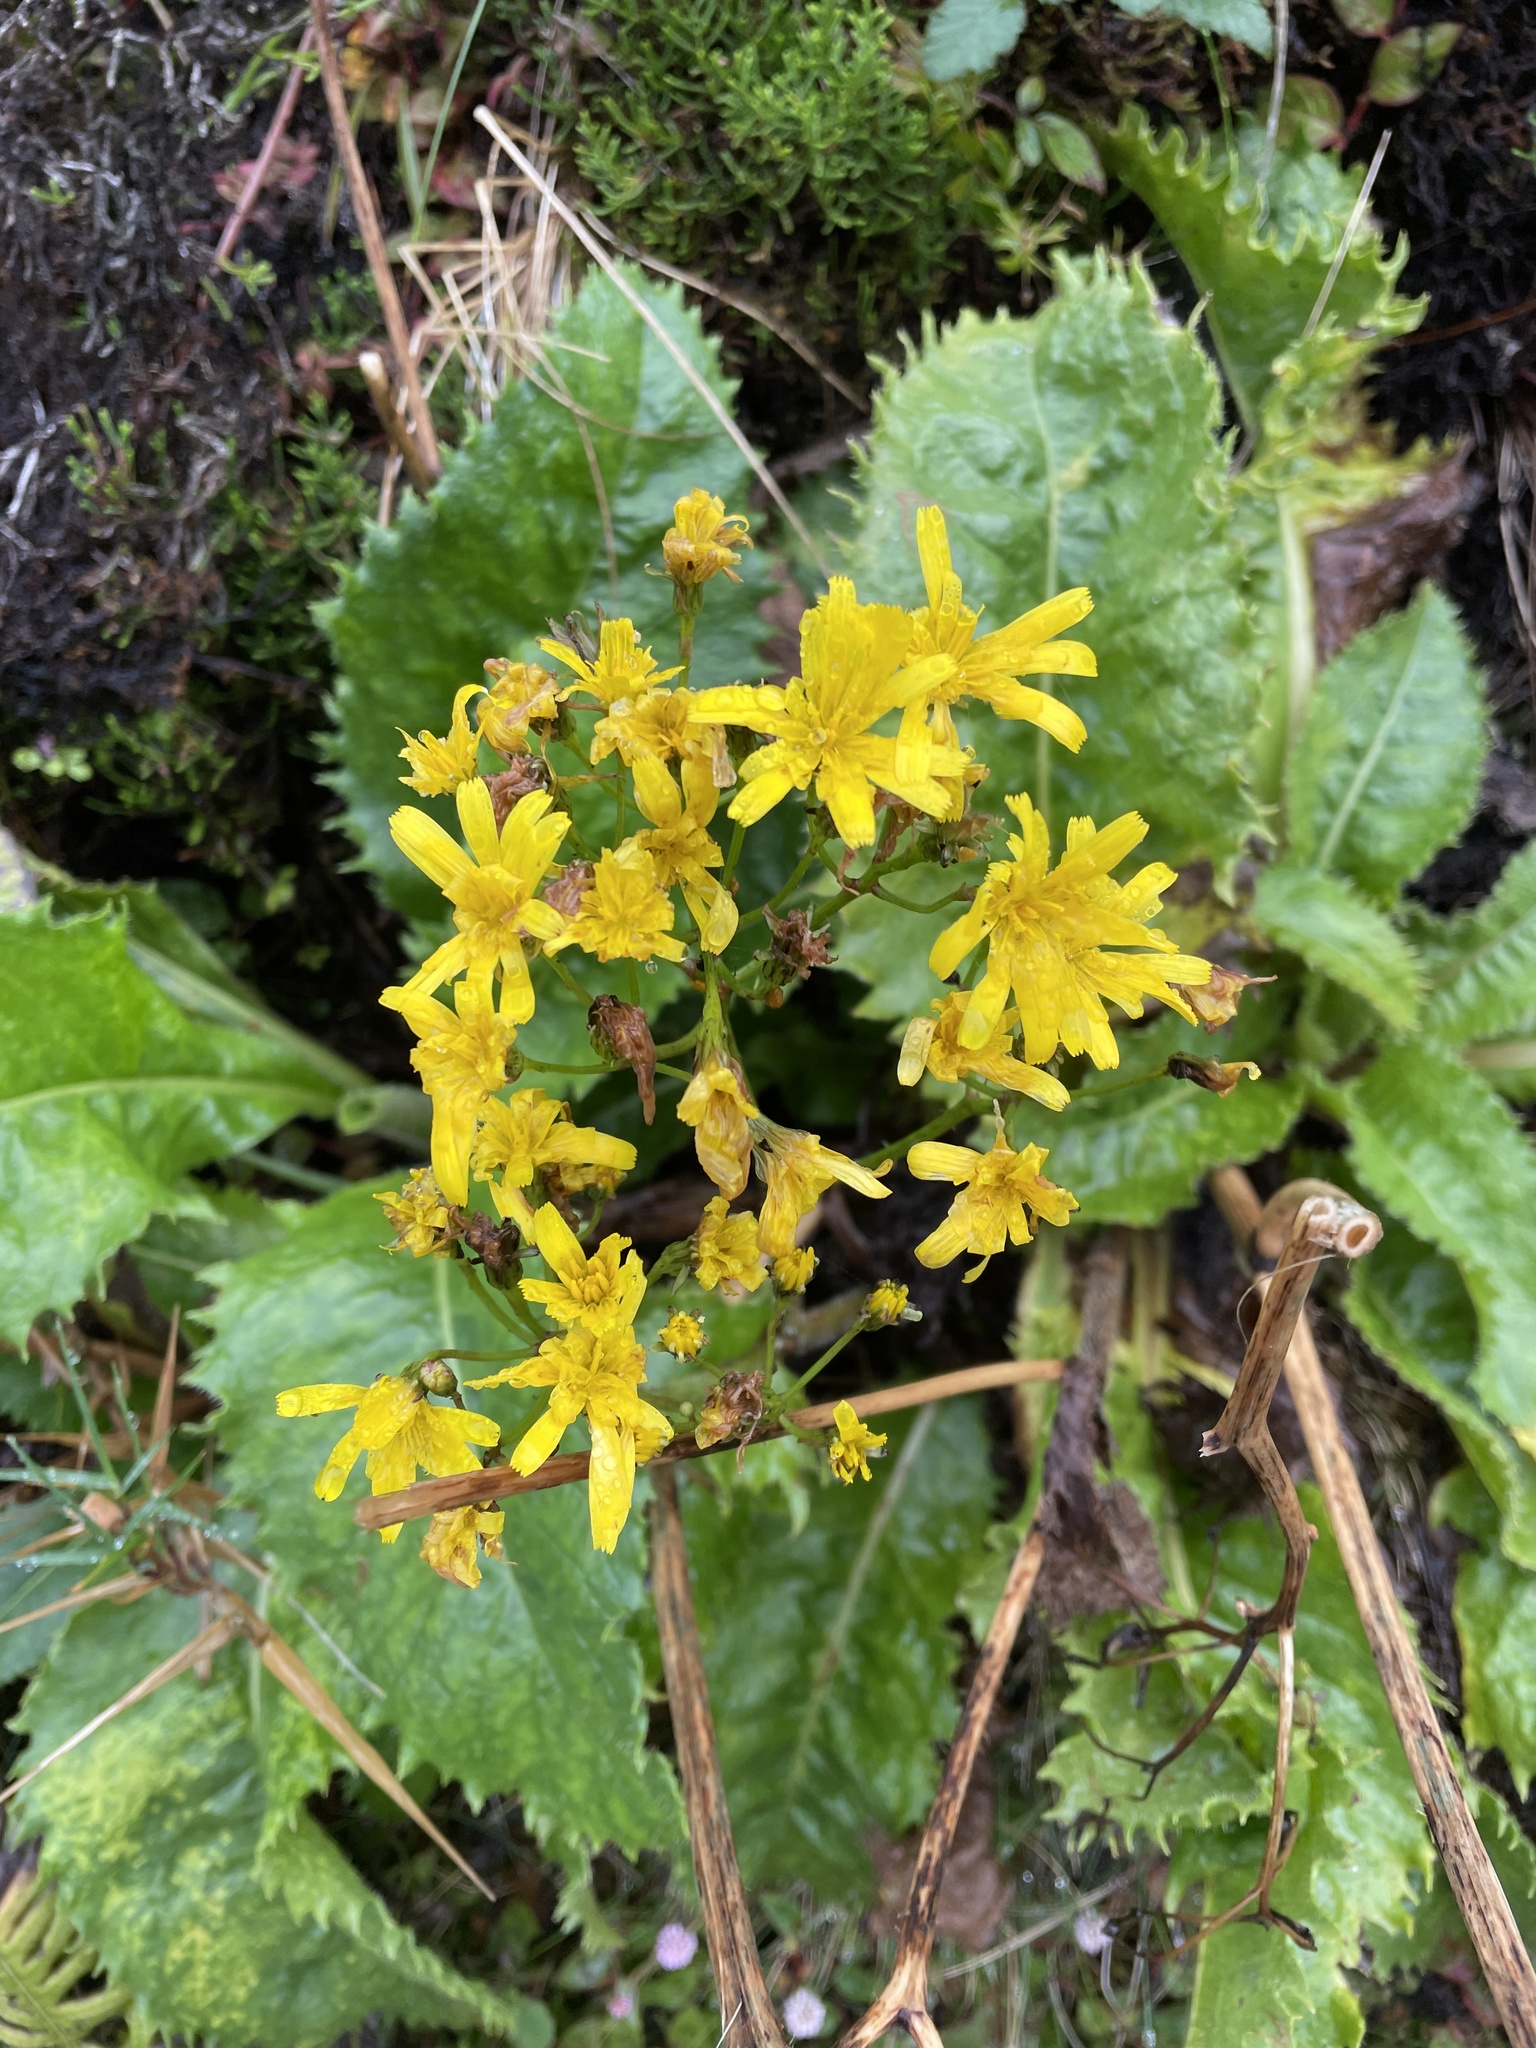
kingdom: Plantae
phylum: Tracheophyta
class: Magnoliopsida
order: Asterales
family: Asteraceae
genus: Leontodon
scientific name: Leontodon rigens
